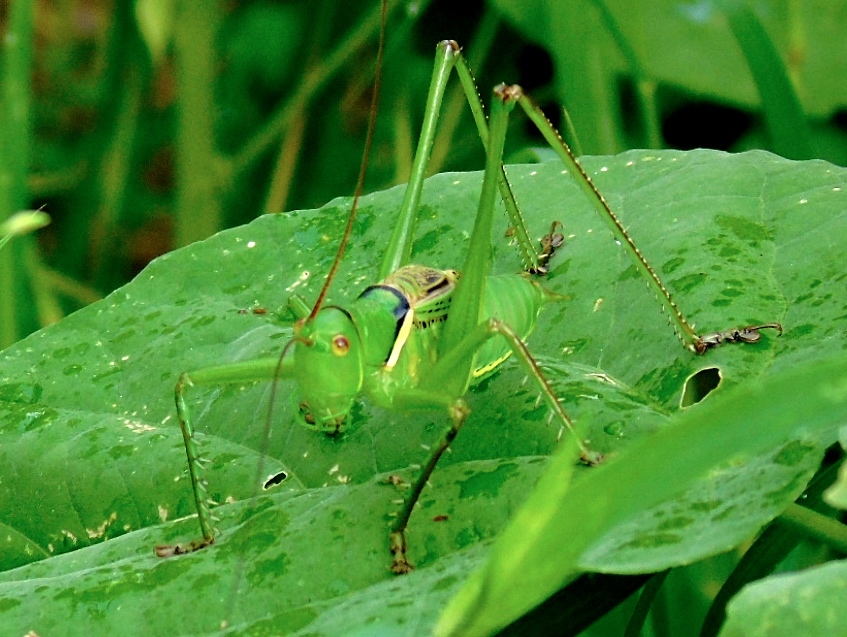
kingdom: Animalia
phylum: Arthropoda
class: Insecta
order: Orthoptera
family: Tettigoniidae
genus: Neobarrettia
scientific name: Neobarrettia sinaloae
